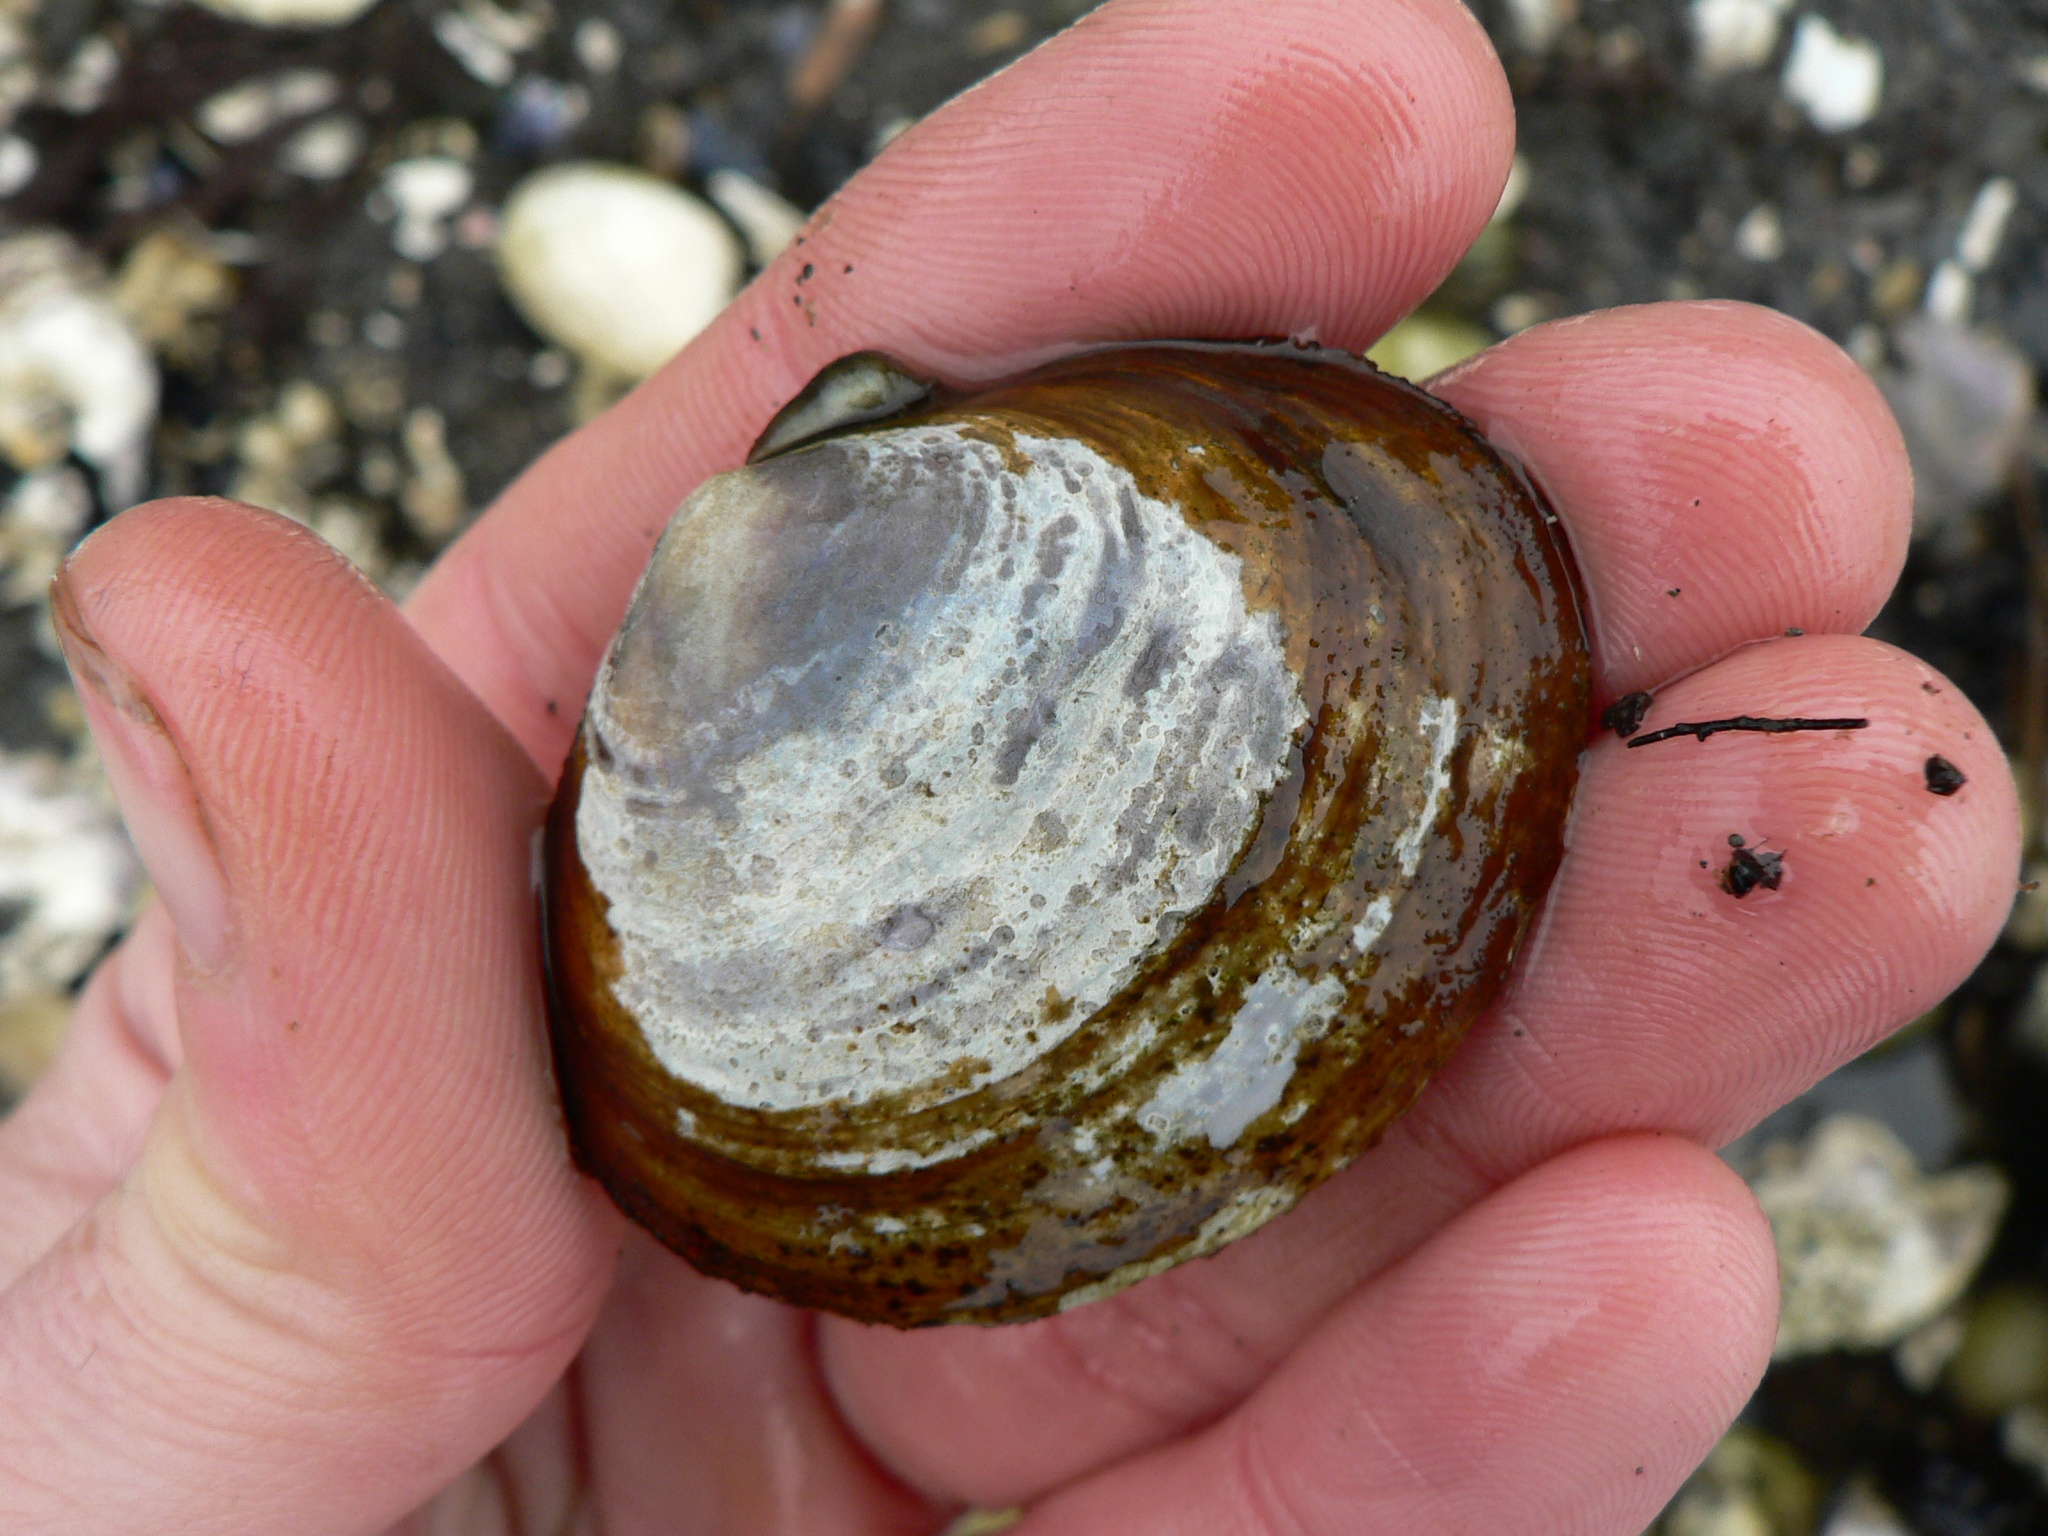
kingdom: Animalia
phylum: Mollusca
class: Bivalvia
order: Cardiida
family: Psammobiidae
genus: Nuttallia
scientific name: Nuttallia obscurata
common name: Purple mahogany-clam
